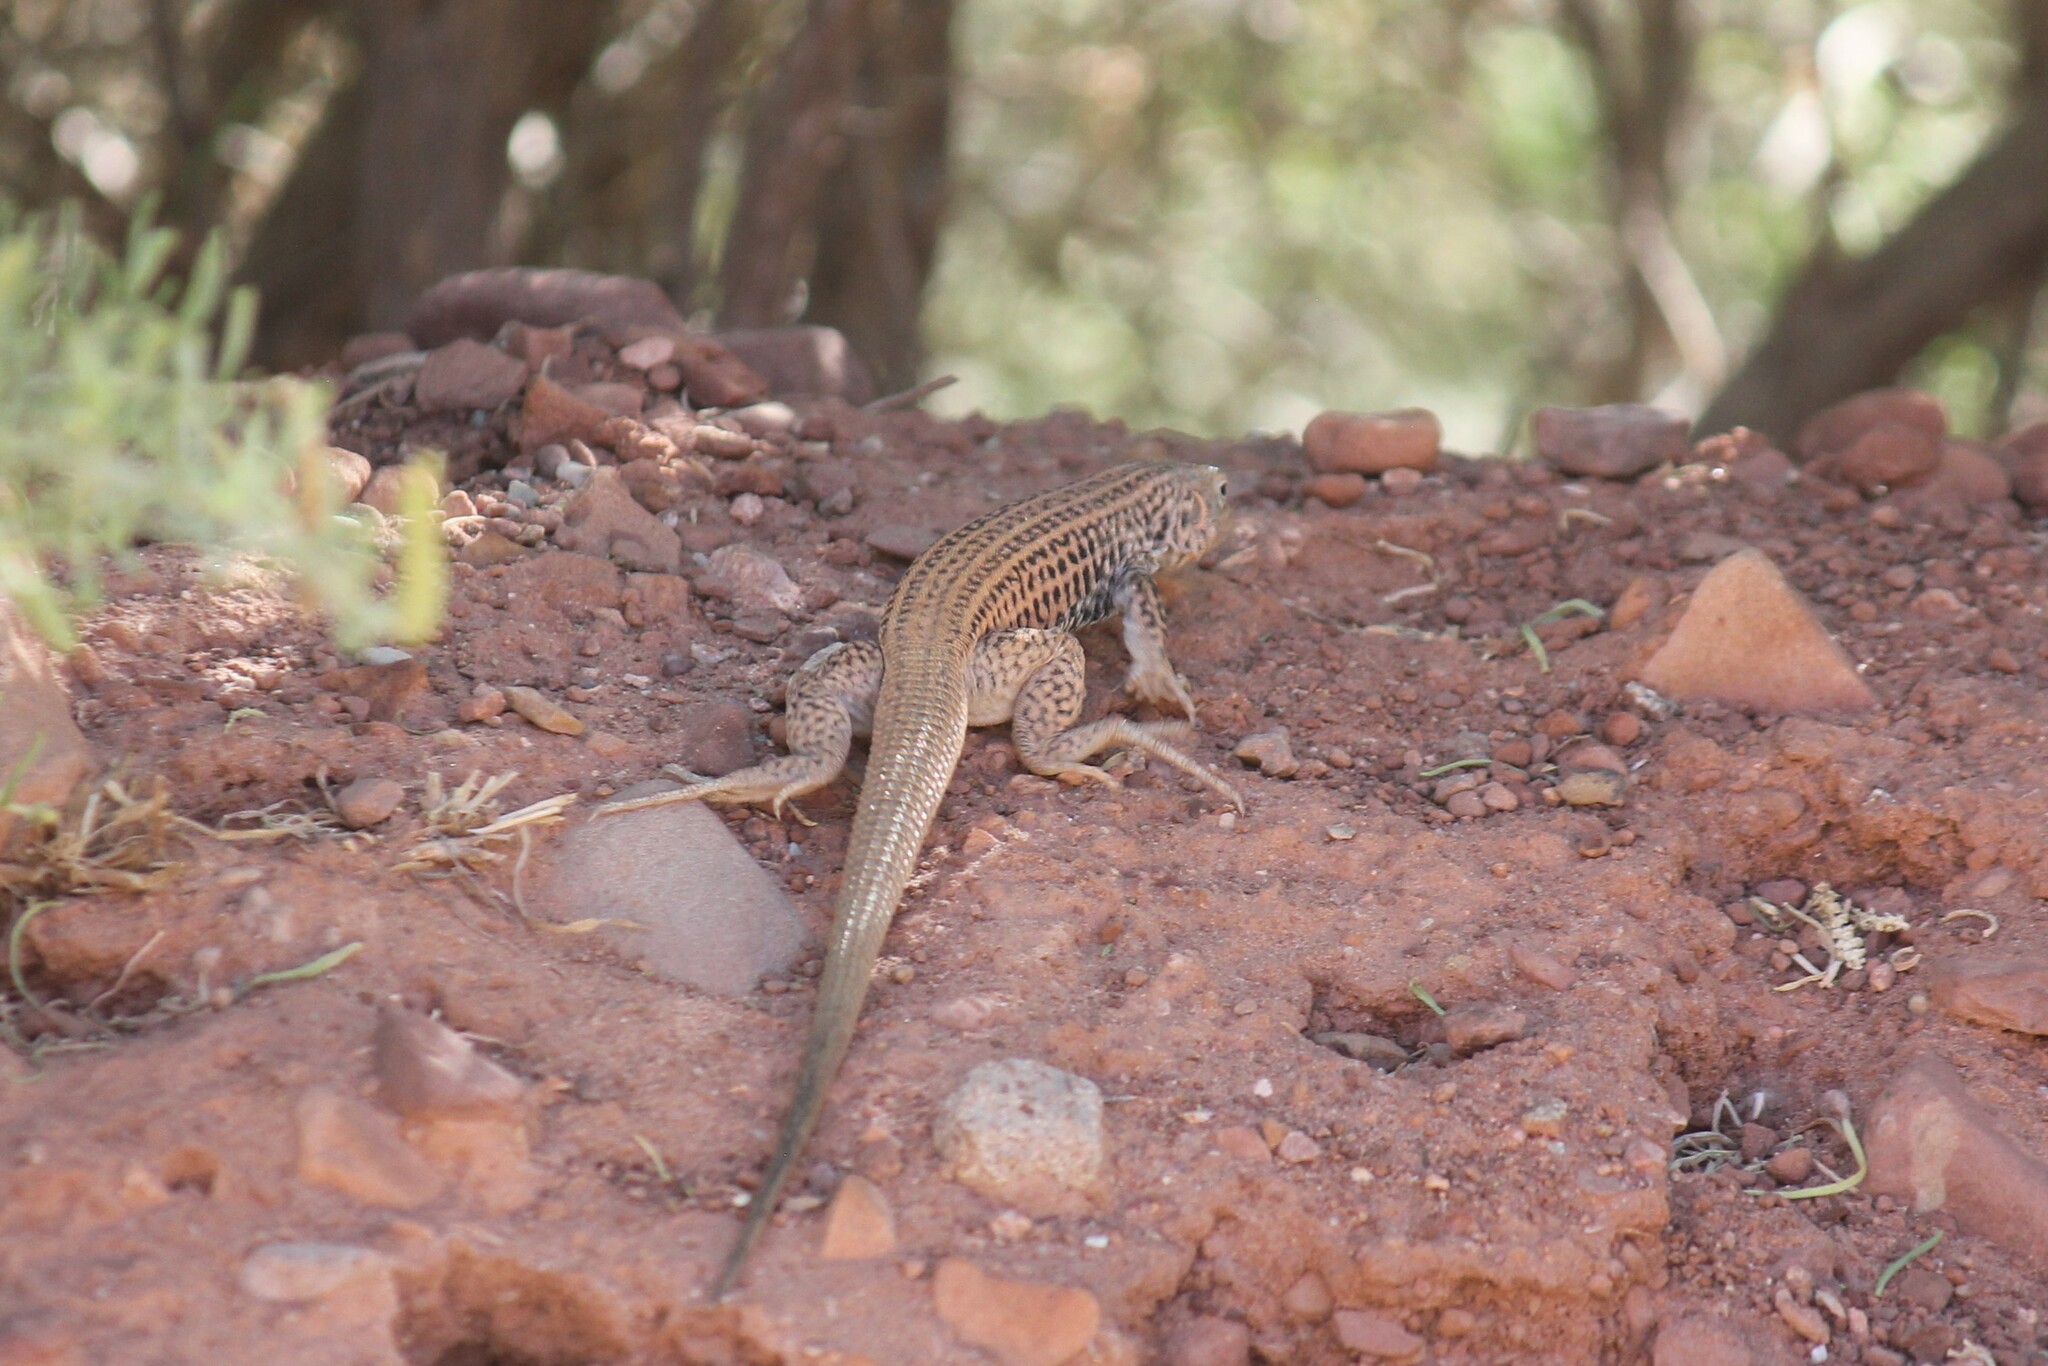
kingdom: Animalia
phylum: Chordata
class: Squamata
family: Teiidae
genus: Aspidoscelis
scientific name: Aspidoscelis tigris
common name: Tiger whiptail
